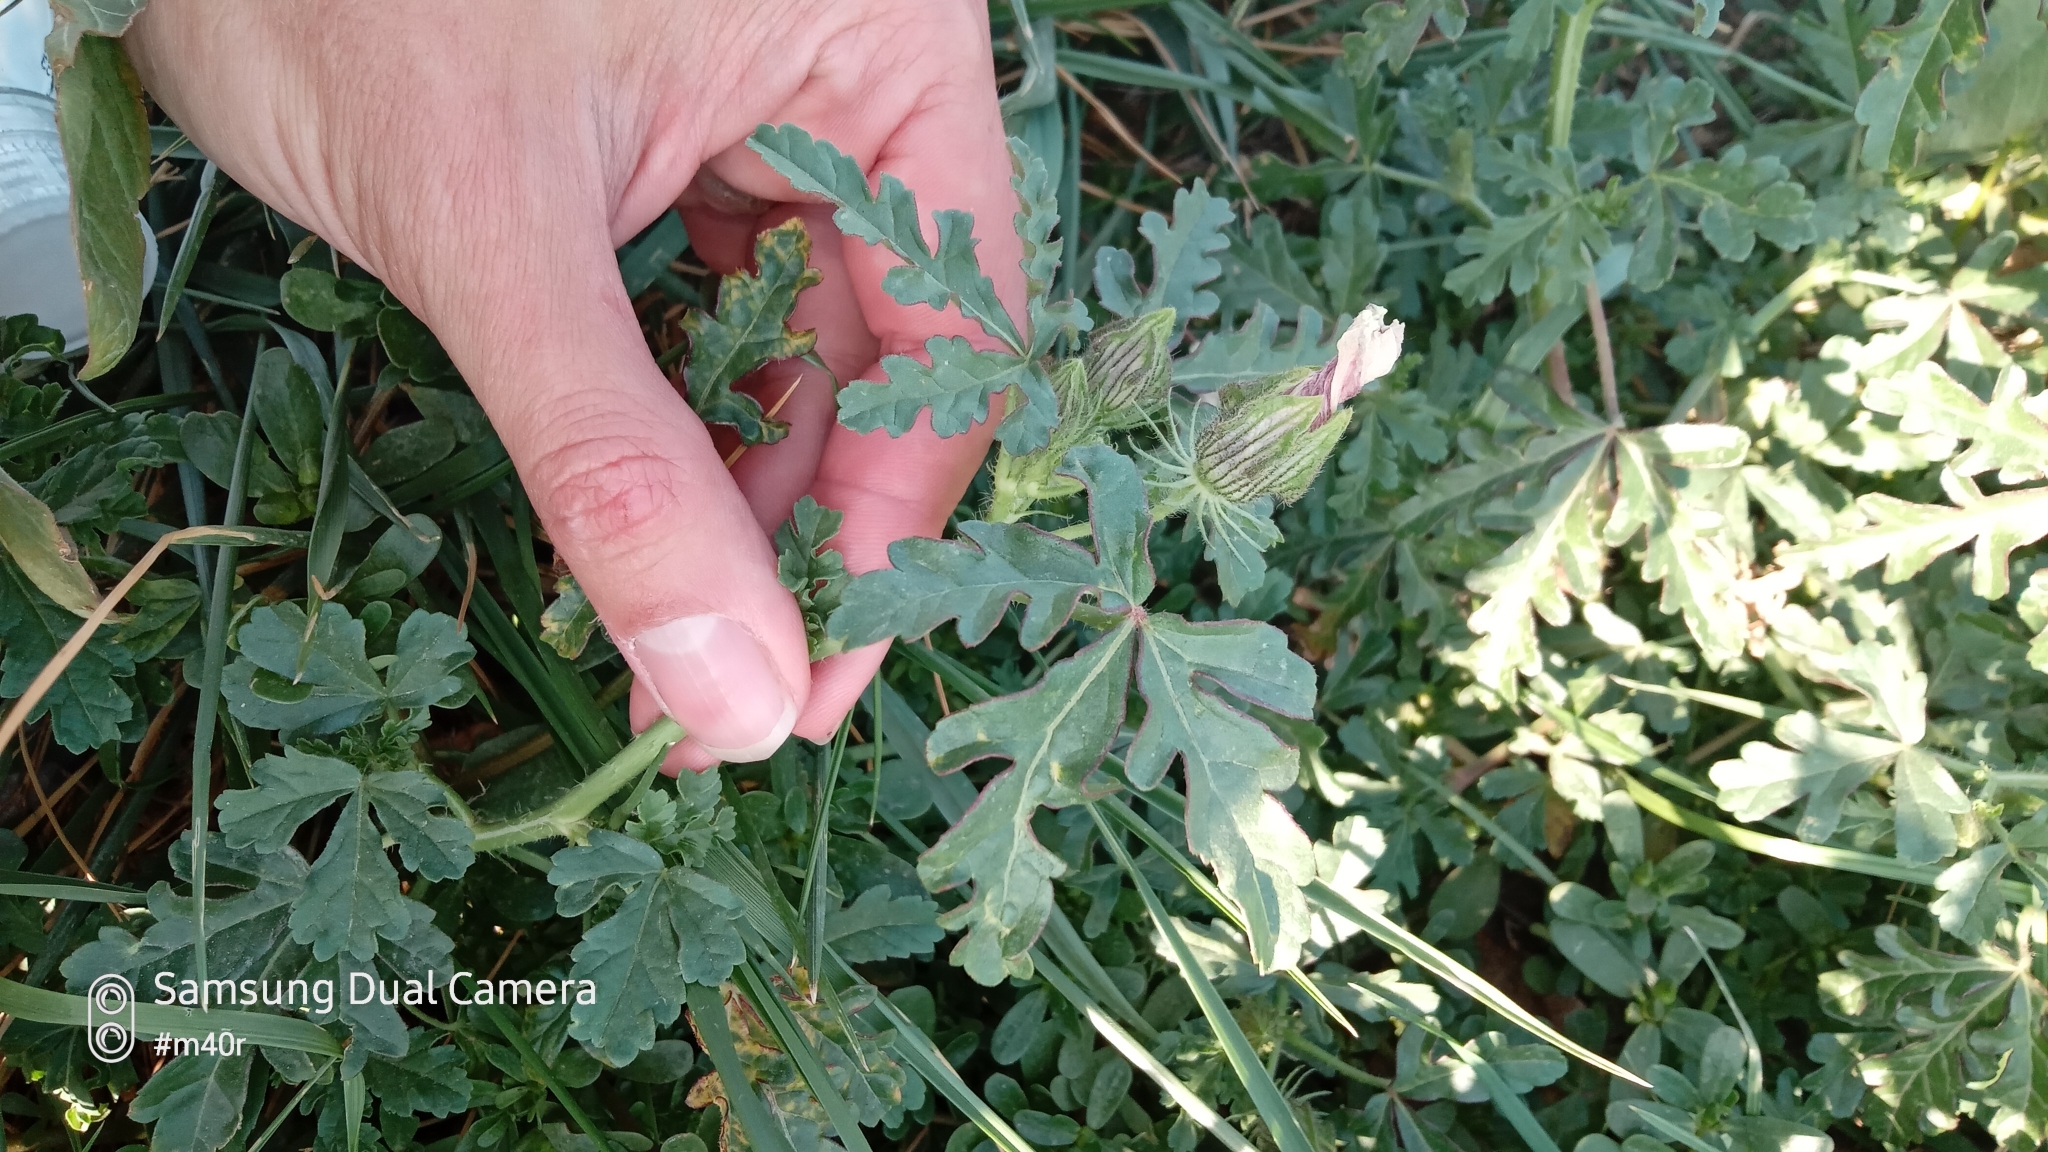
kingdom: Plantae
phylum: Tracheophyta
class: Magnoliopsida
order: Malvales
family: Malvaceae
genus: Hibiscus
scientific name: Hibiscus trionum
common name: Bladder ketmia
